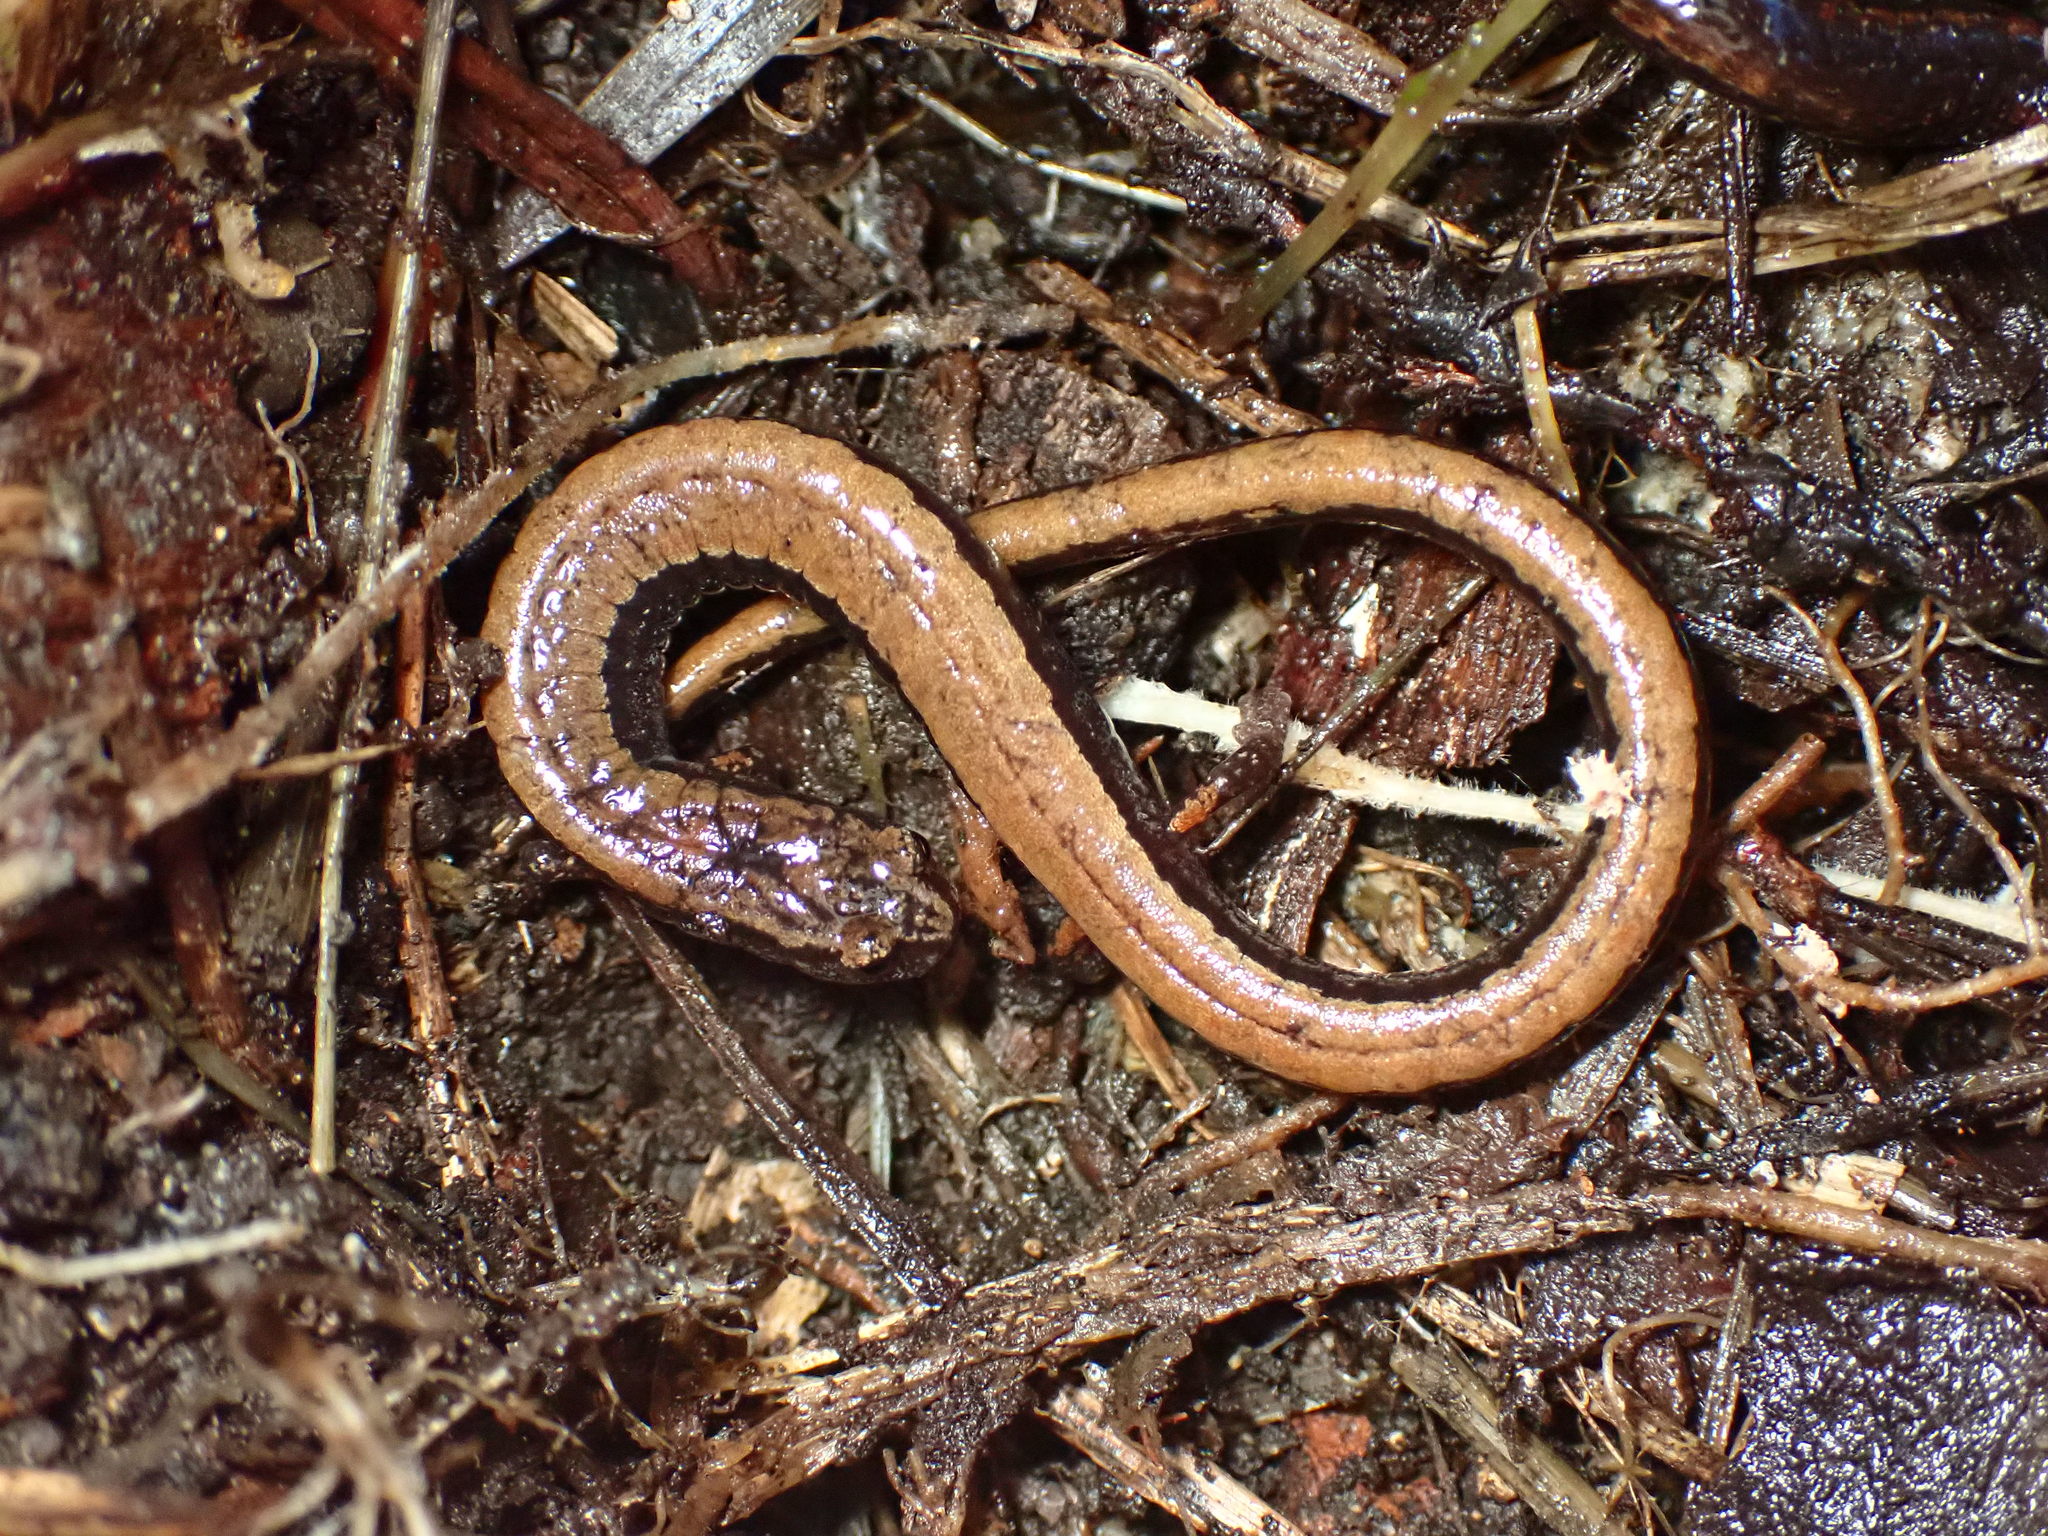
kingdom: Animalia
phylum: Chordata
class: Amphibia
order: Caudata
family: Plethodontidae
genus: Batrachoseps
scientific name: Batrachoseps attenuatus
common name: California slender salamander
